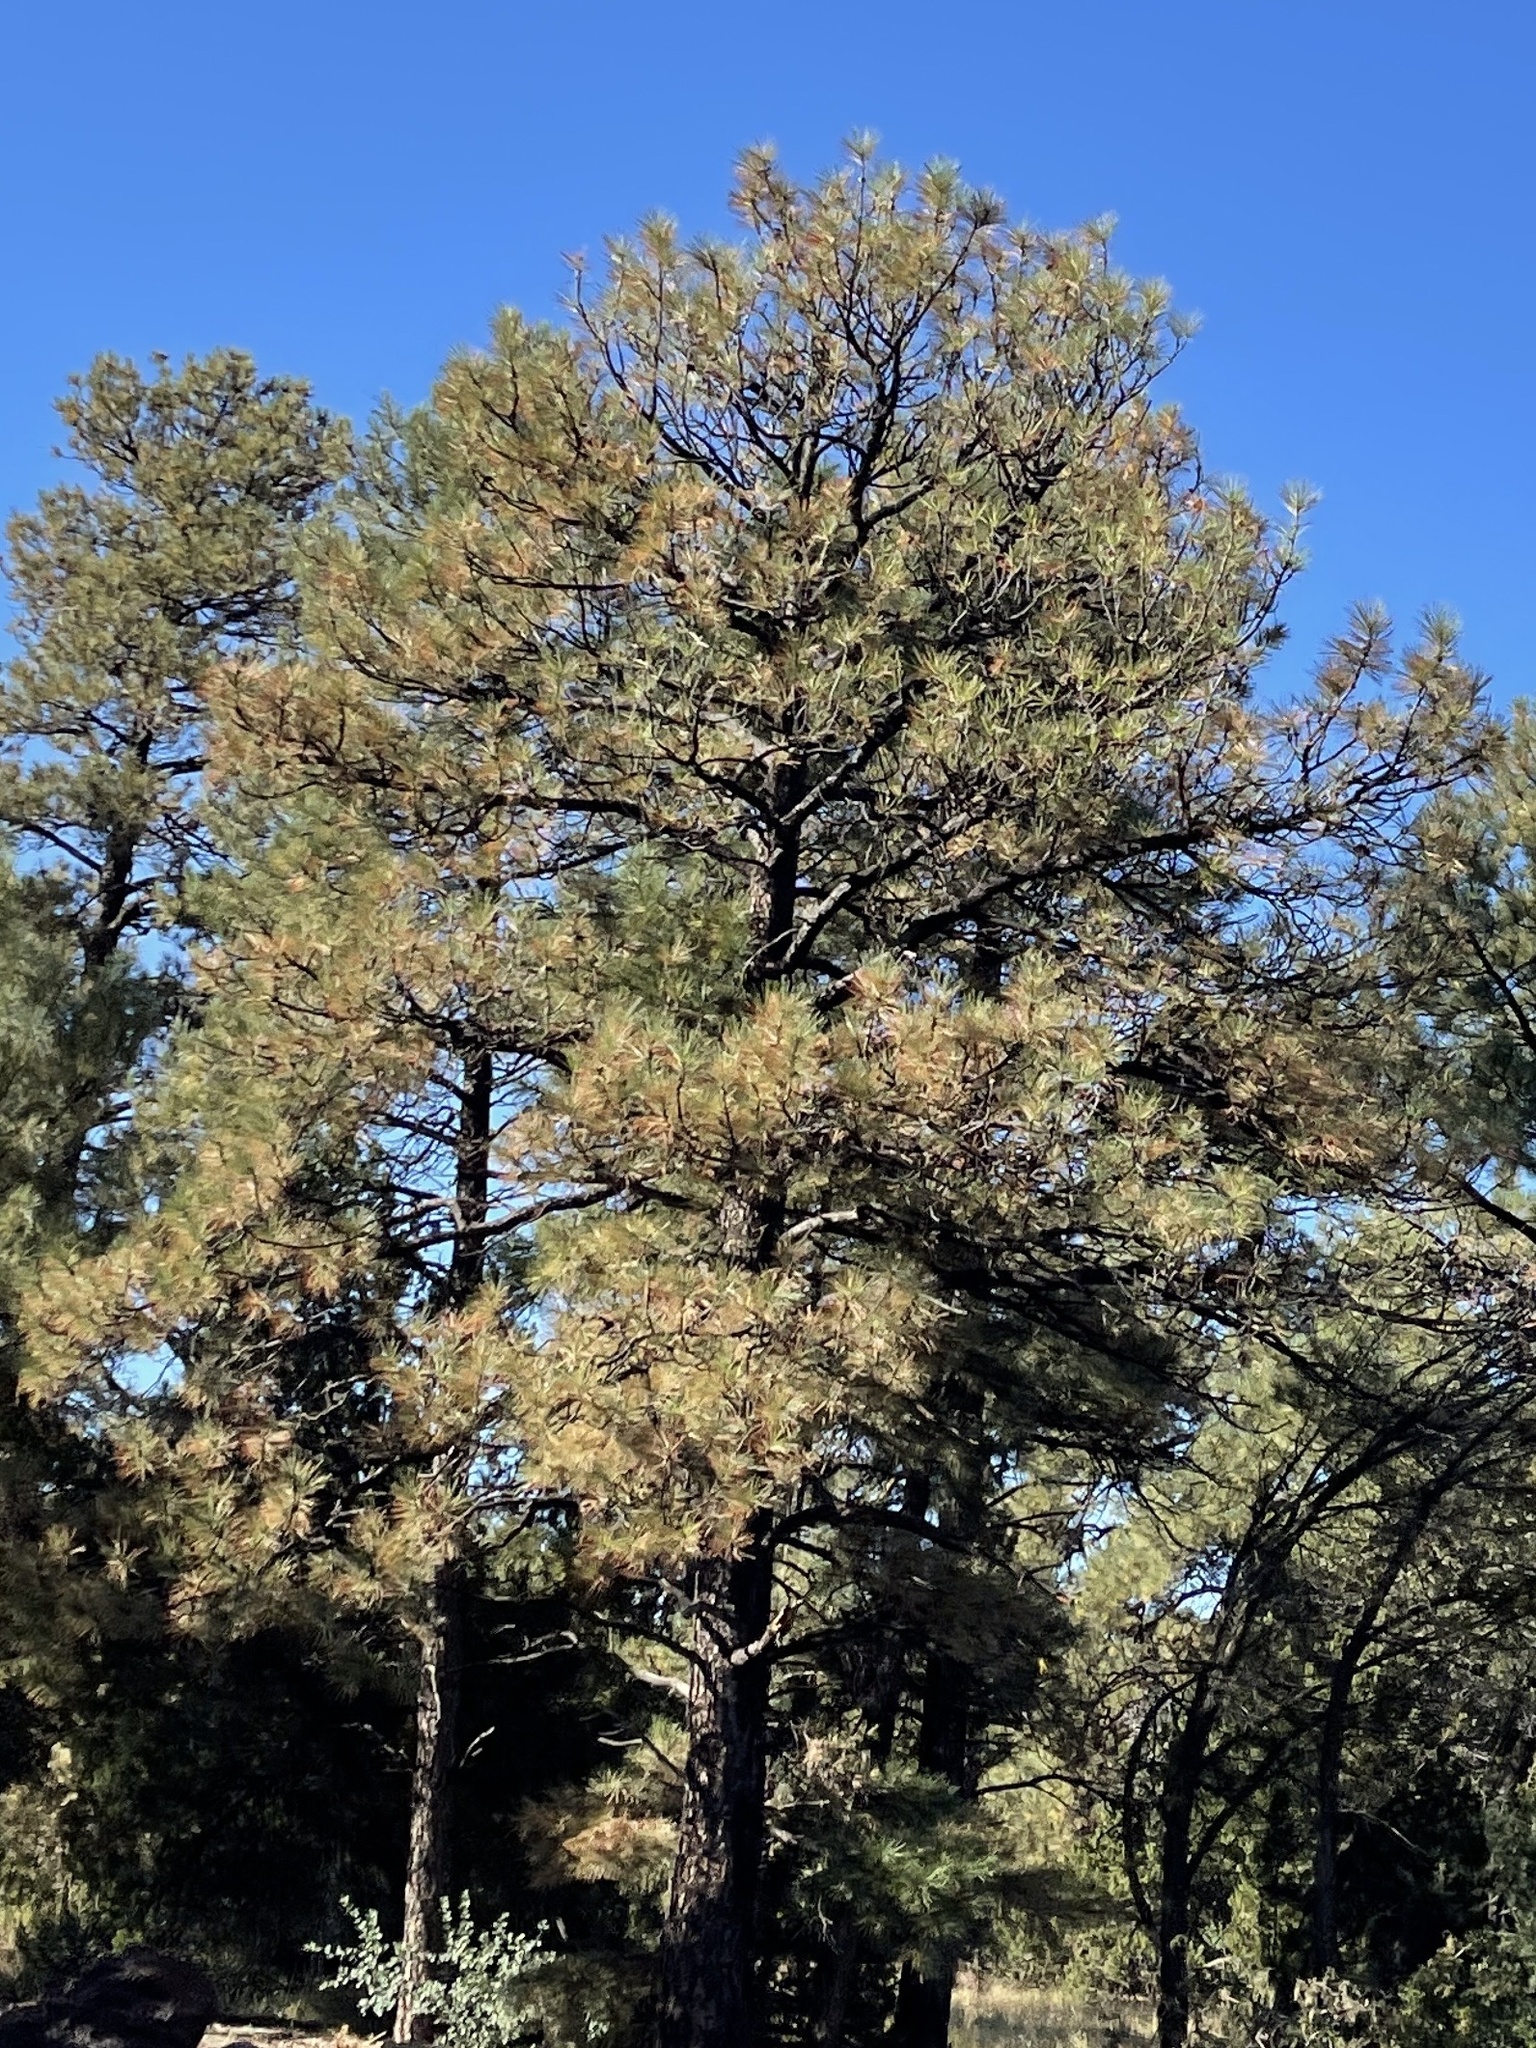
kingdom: Plantae
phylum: Tracheophyta
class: Pinopsida
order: Pinales
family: Pinaceae
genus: Pinus
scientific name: Pinus ponderosa
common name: Western yellow-pine
